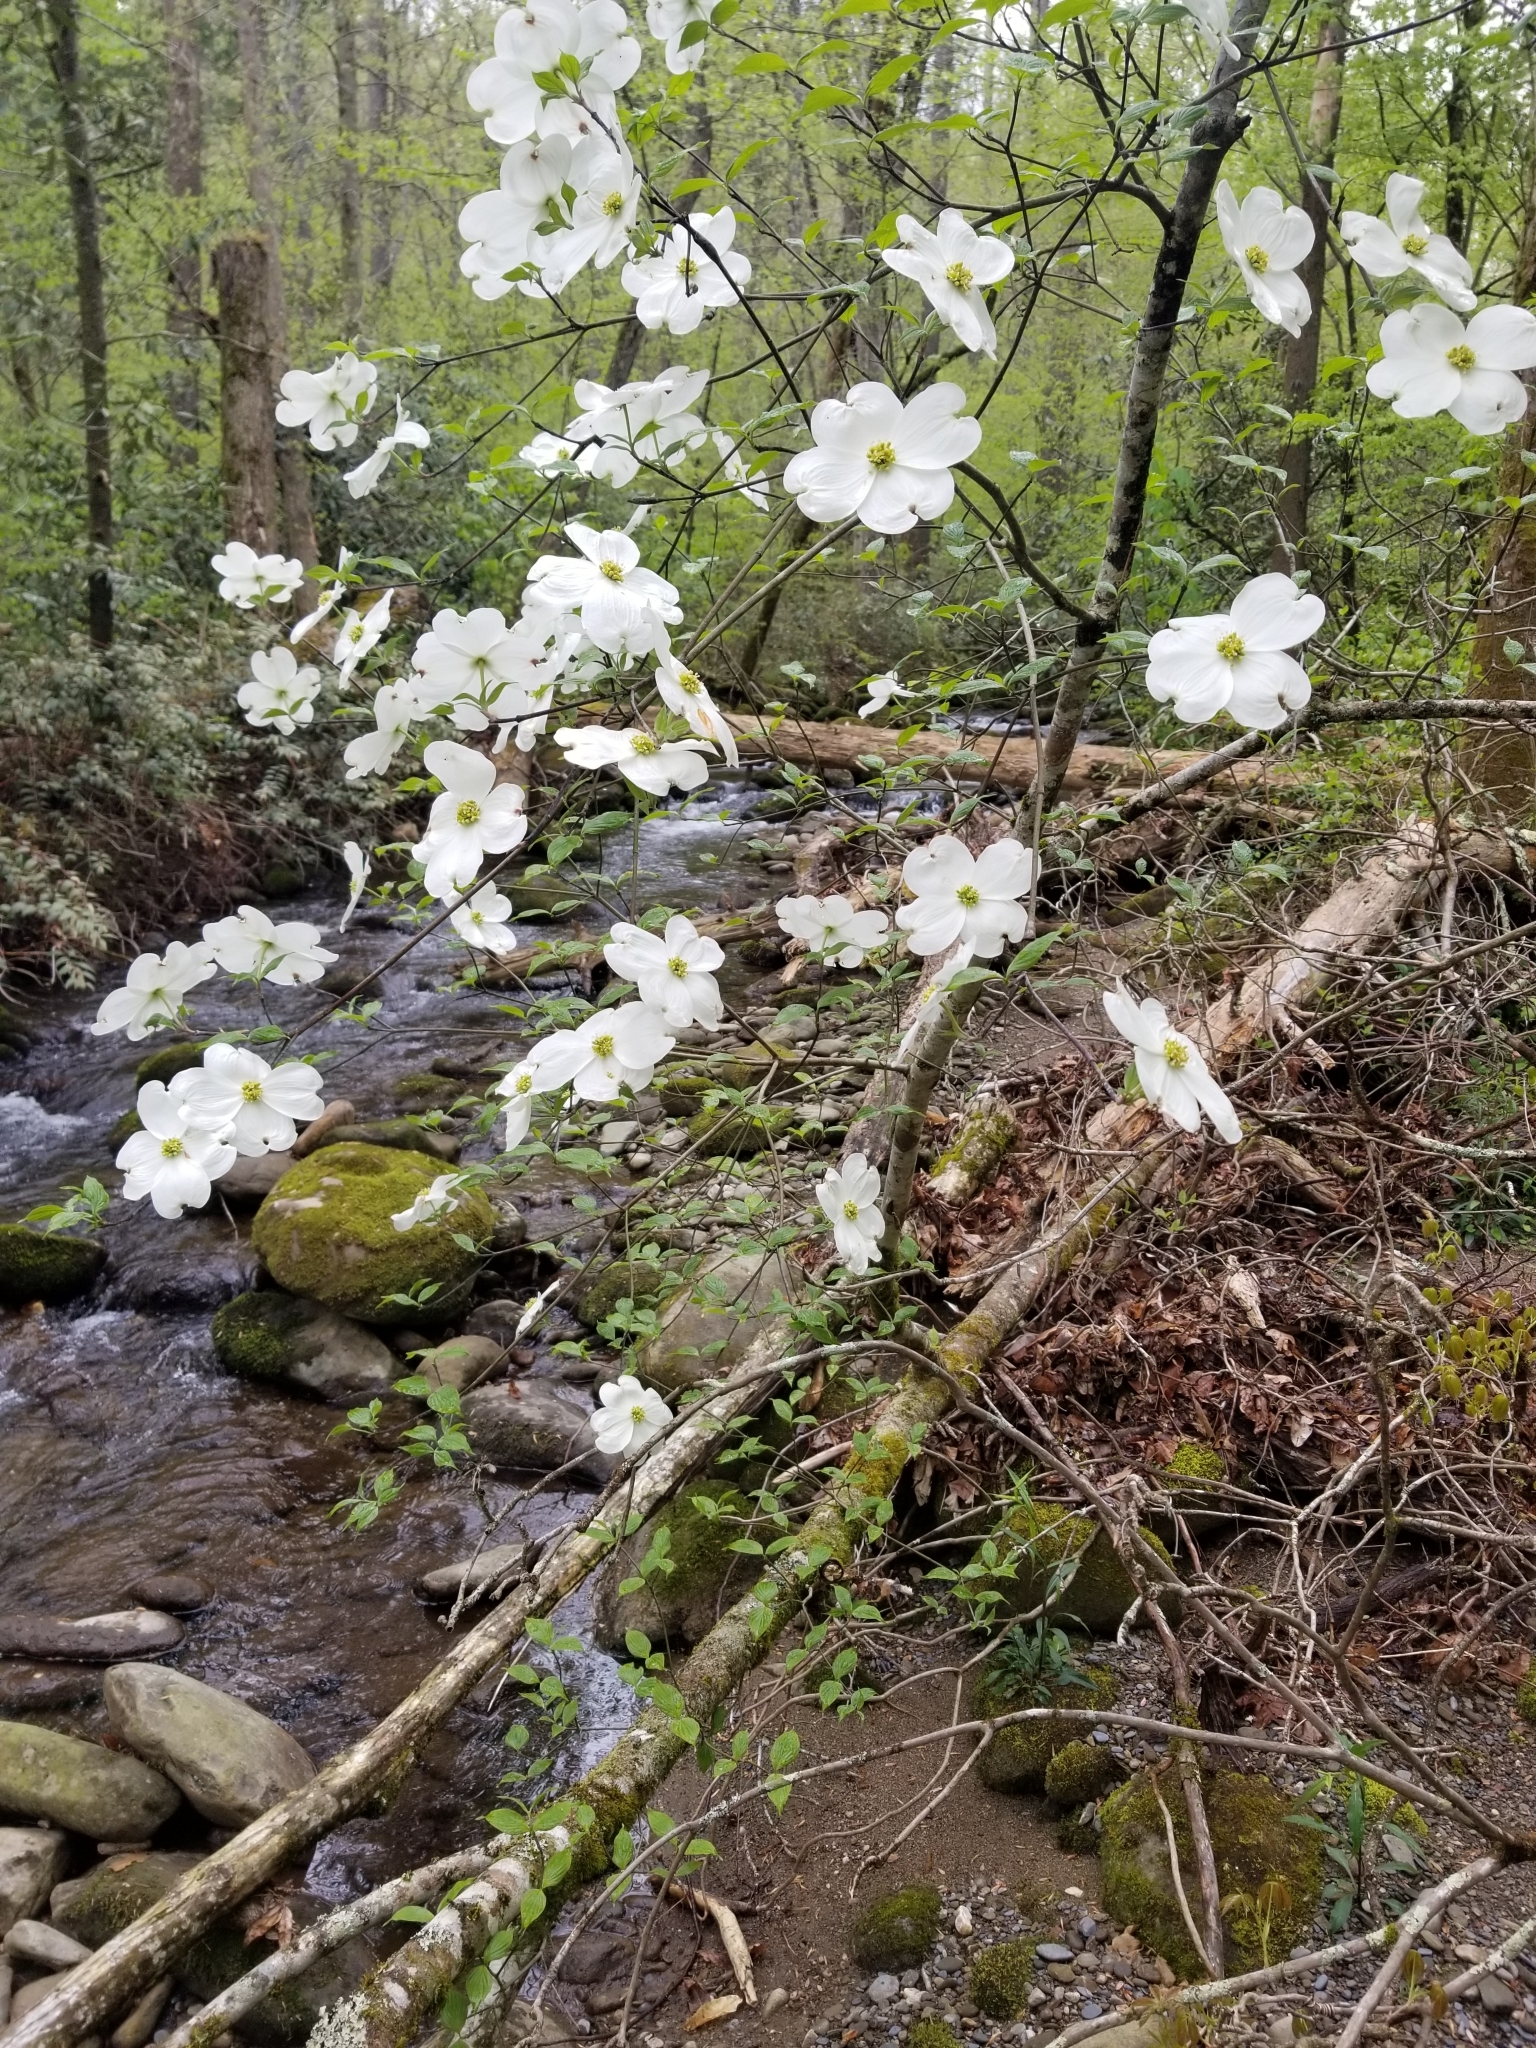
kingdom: Plantae
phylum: Tracheophyta
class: Magnoliopsida
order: Cornales
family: Cornaceae
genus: Cornus
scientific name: Cornus florida
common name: Flowering dogwood
